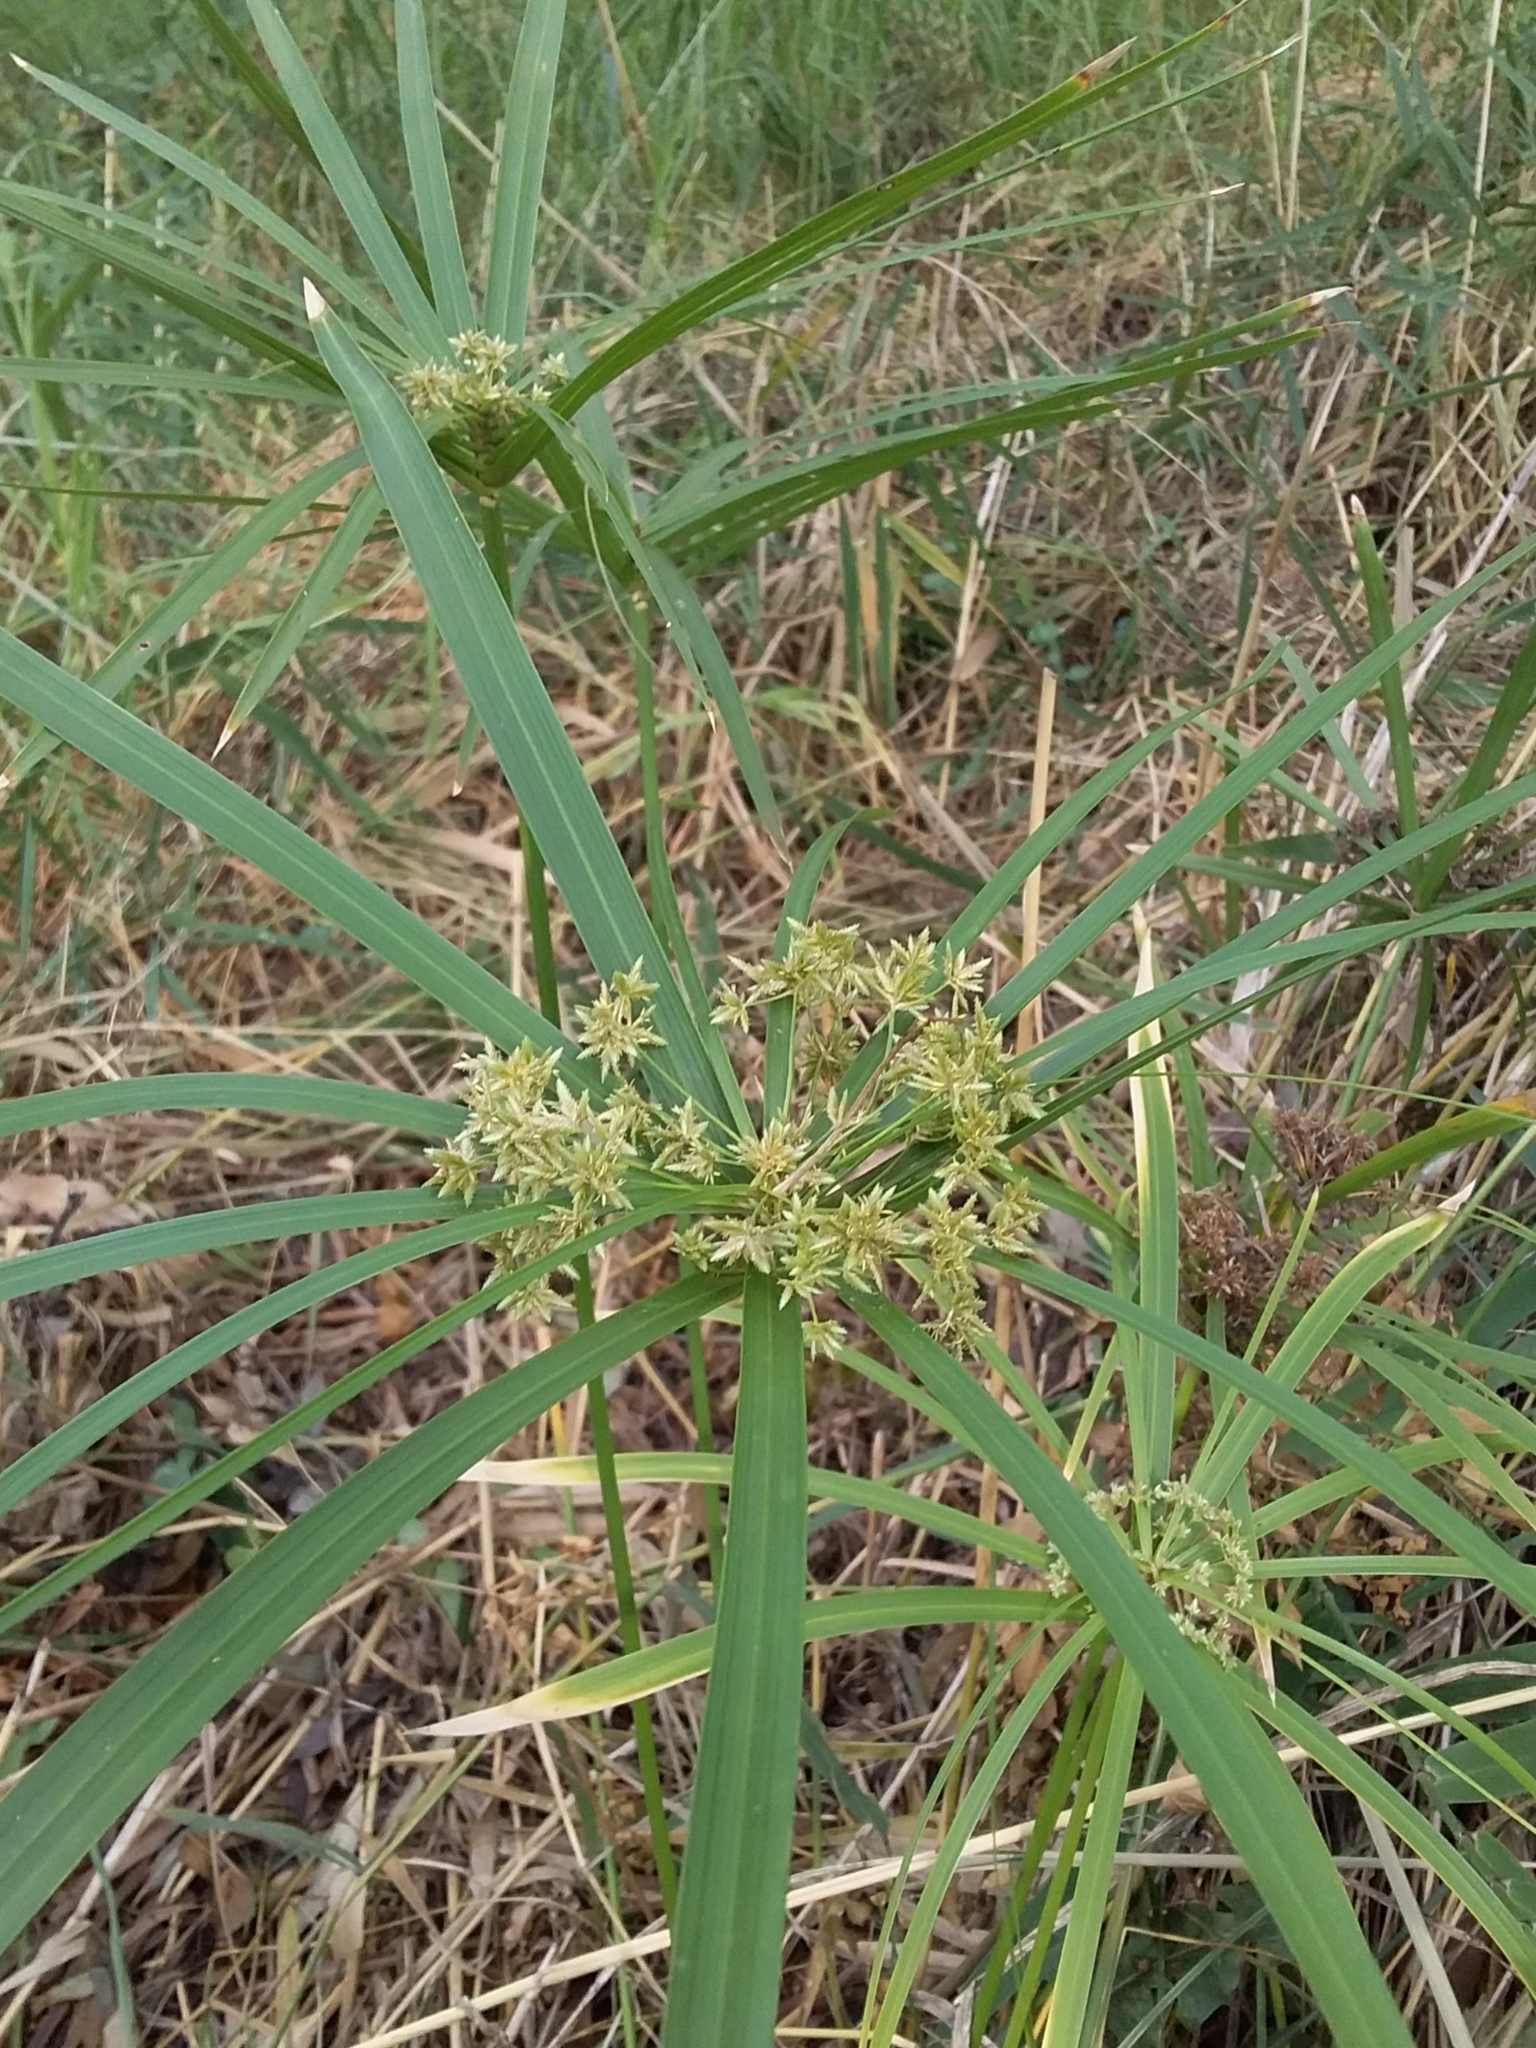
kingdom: Plantae
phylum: Tracheophyta
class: Liliopsida
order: Poales
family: Cyperaceae
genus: Cyperus
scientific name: Cyperus alternifolius
